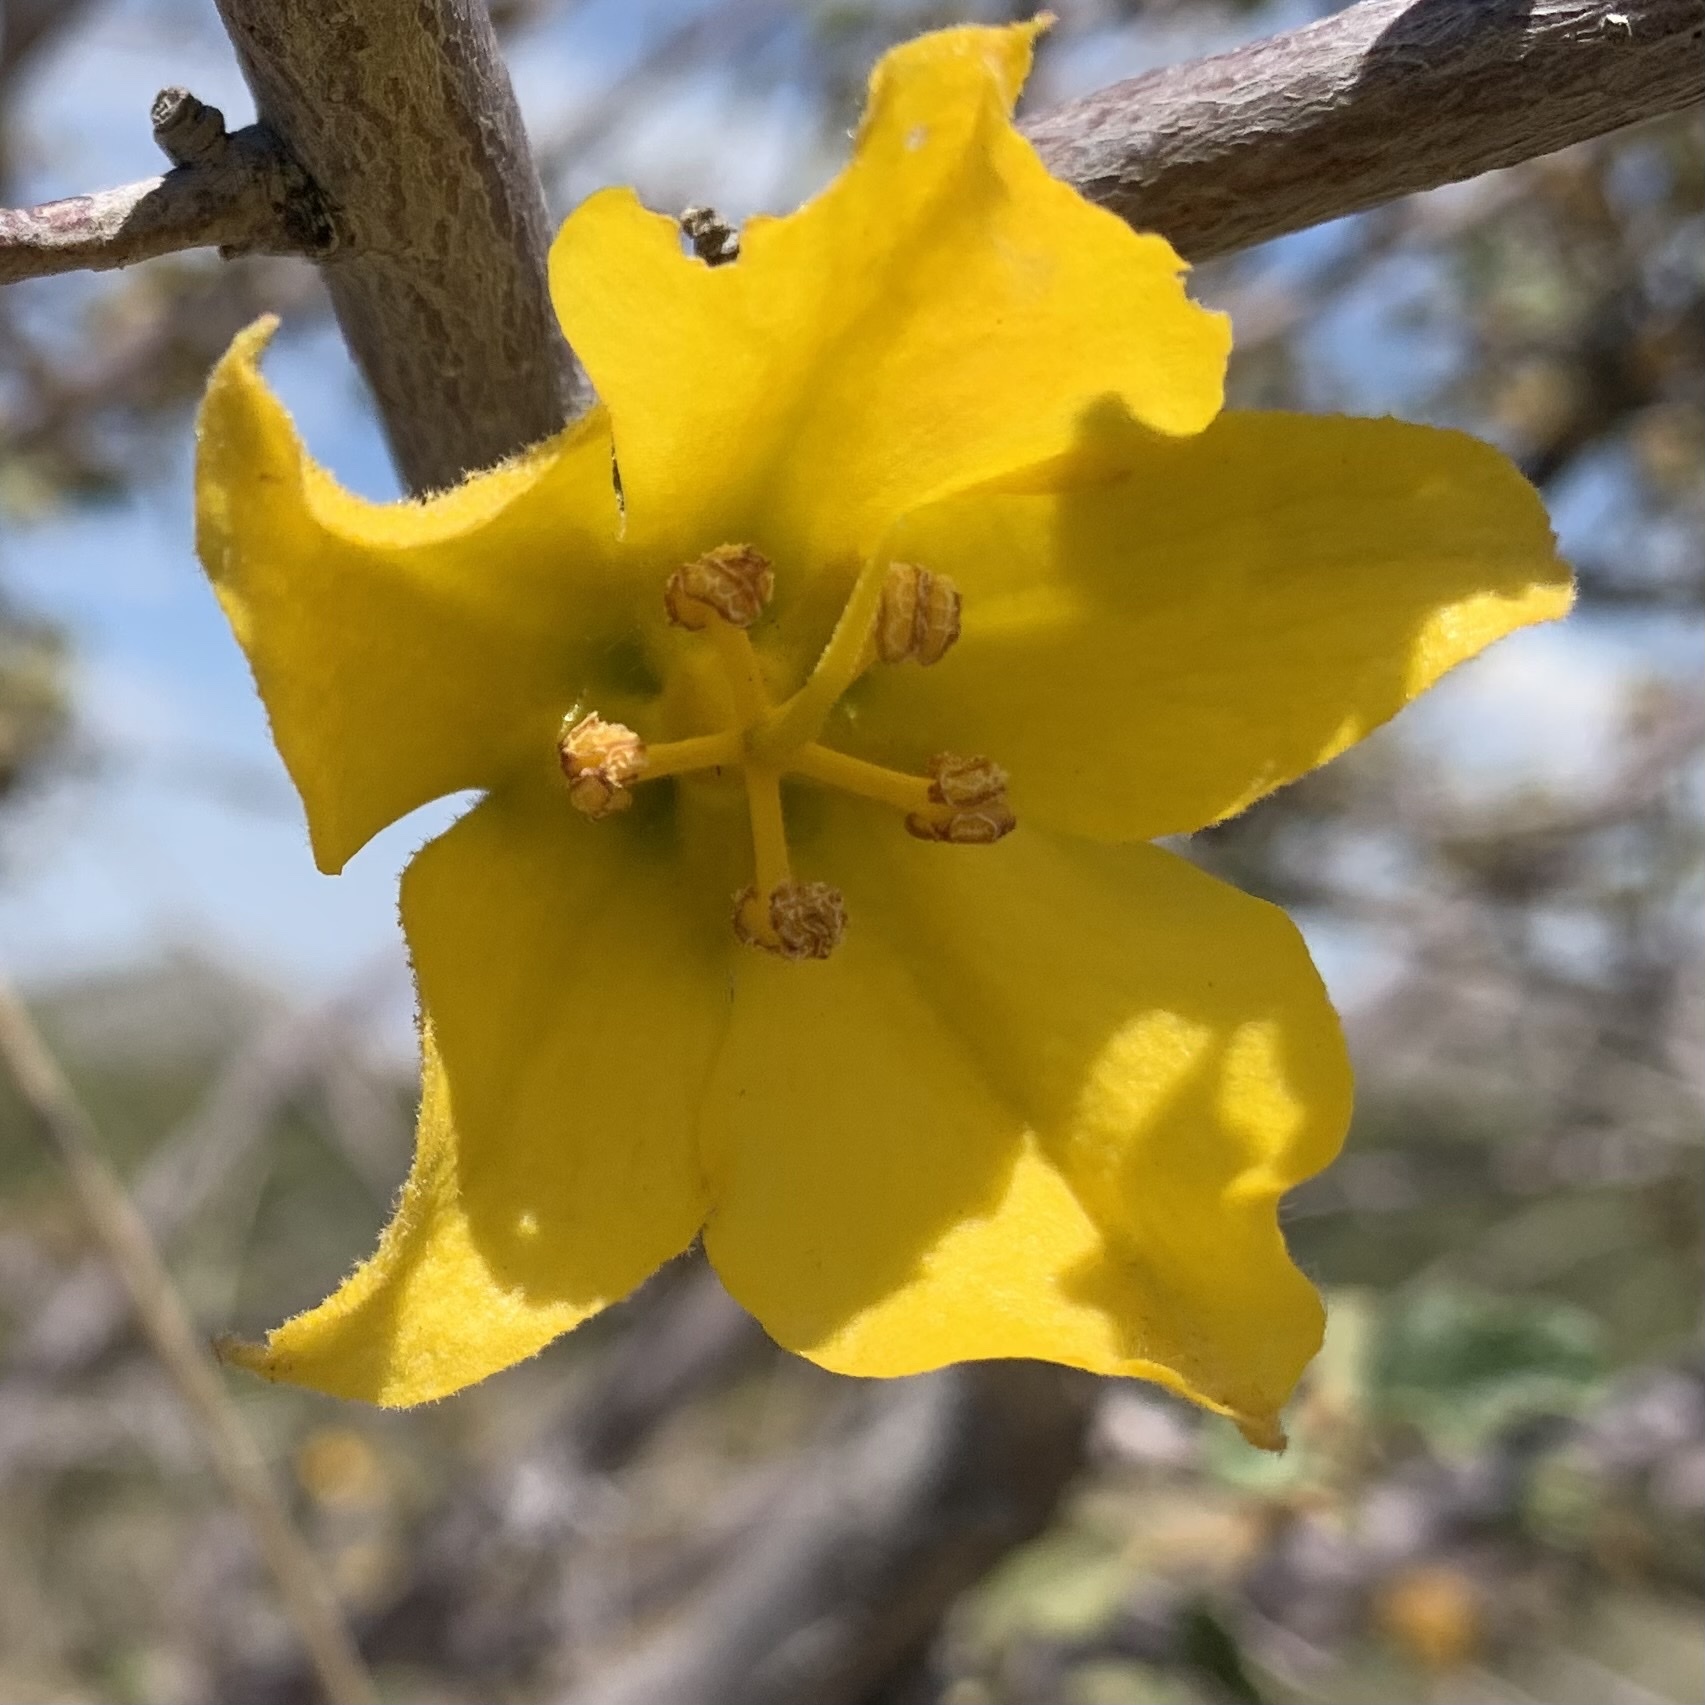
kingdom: Plantae
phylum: Tracheophyta
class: Magnoliopsida
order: Malvales
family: Malvaceae
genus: Fremontodendron
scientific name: Fremontodendron californicum
